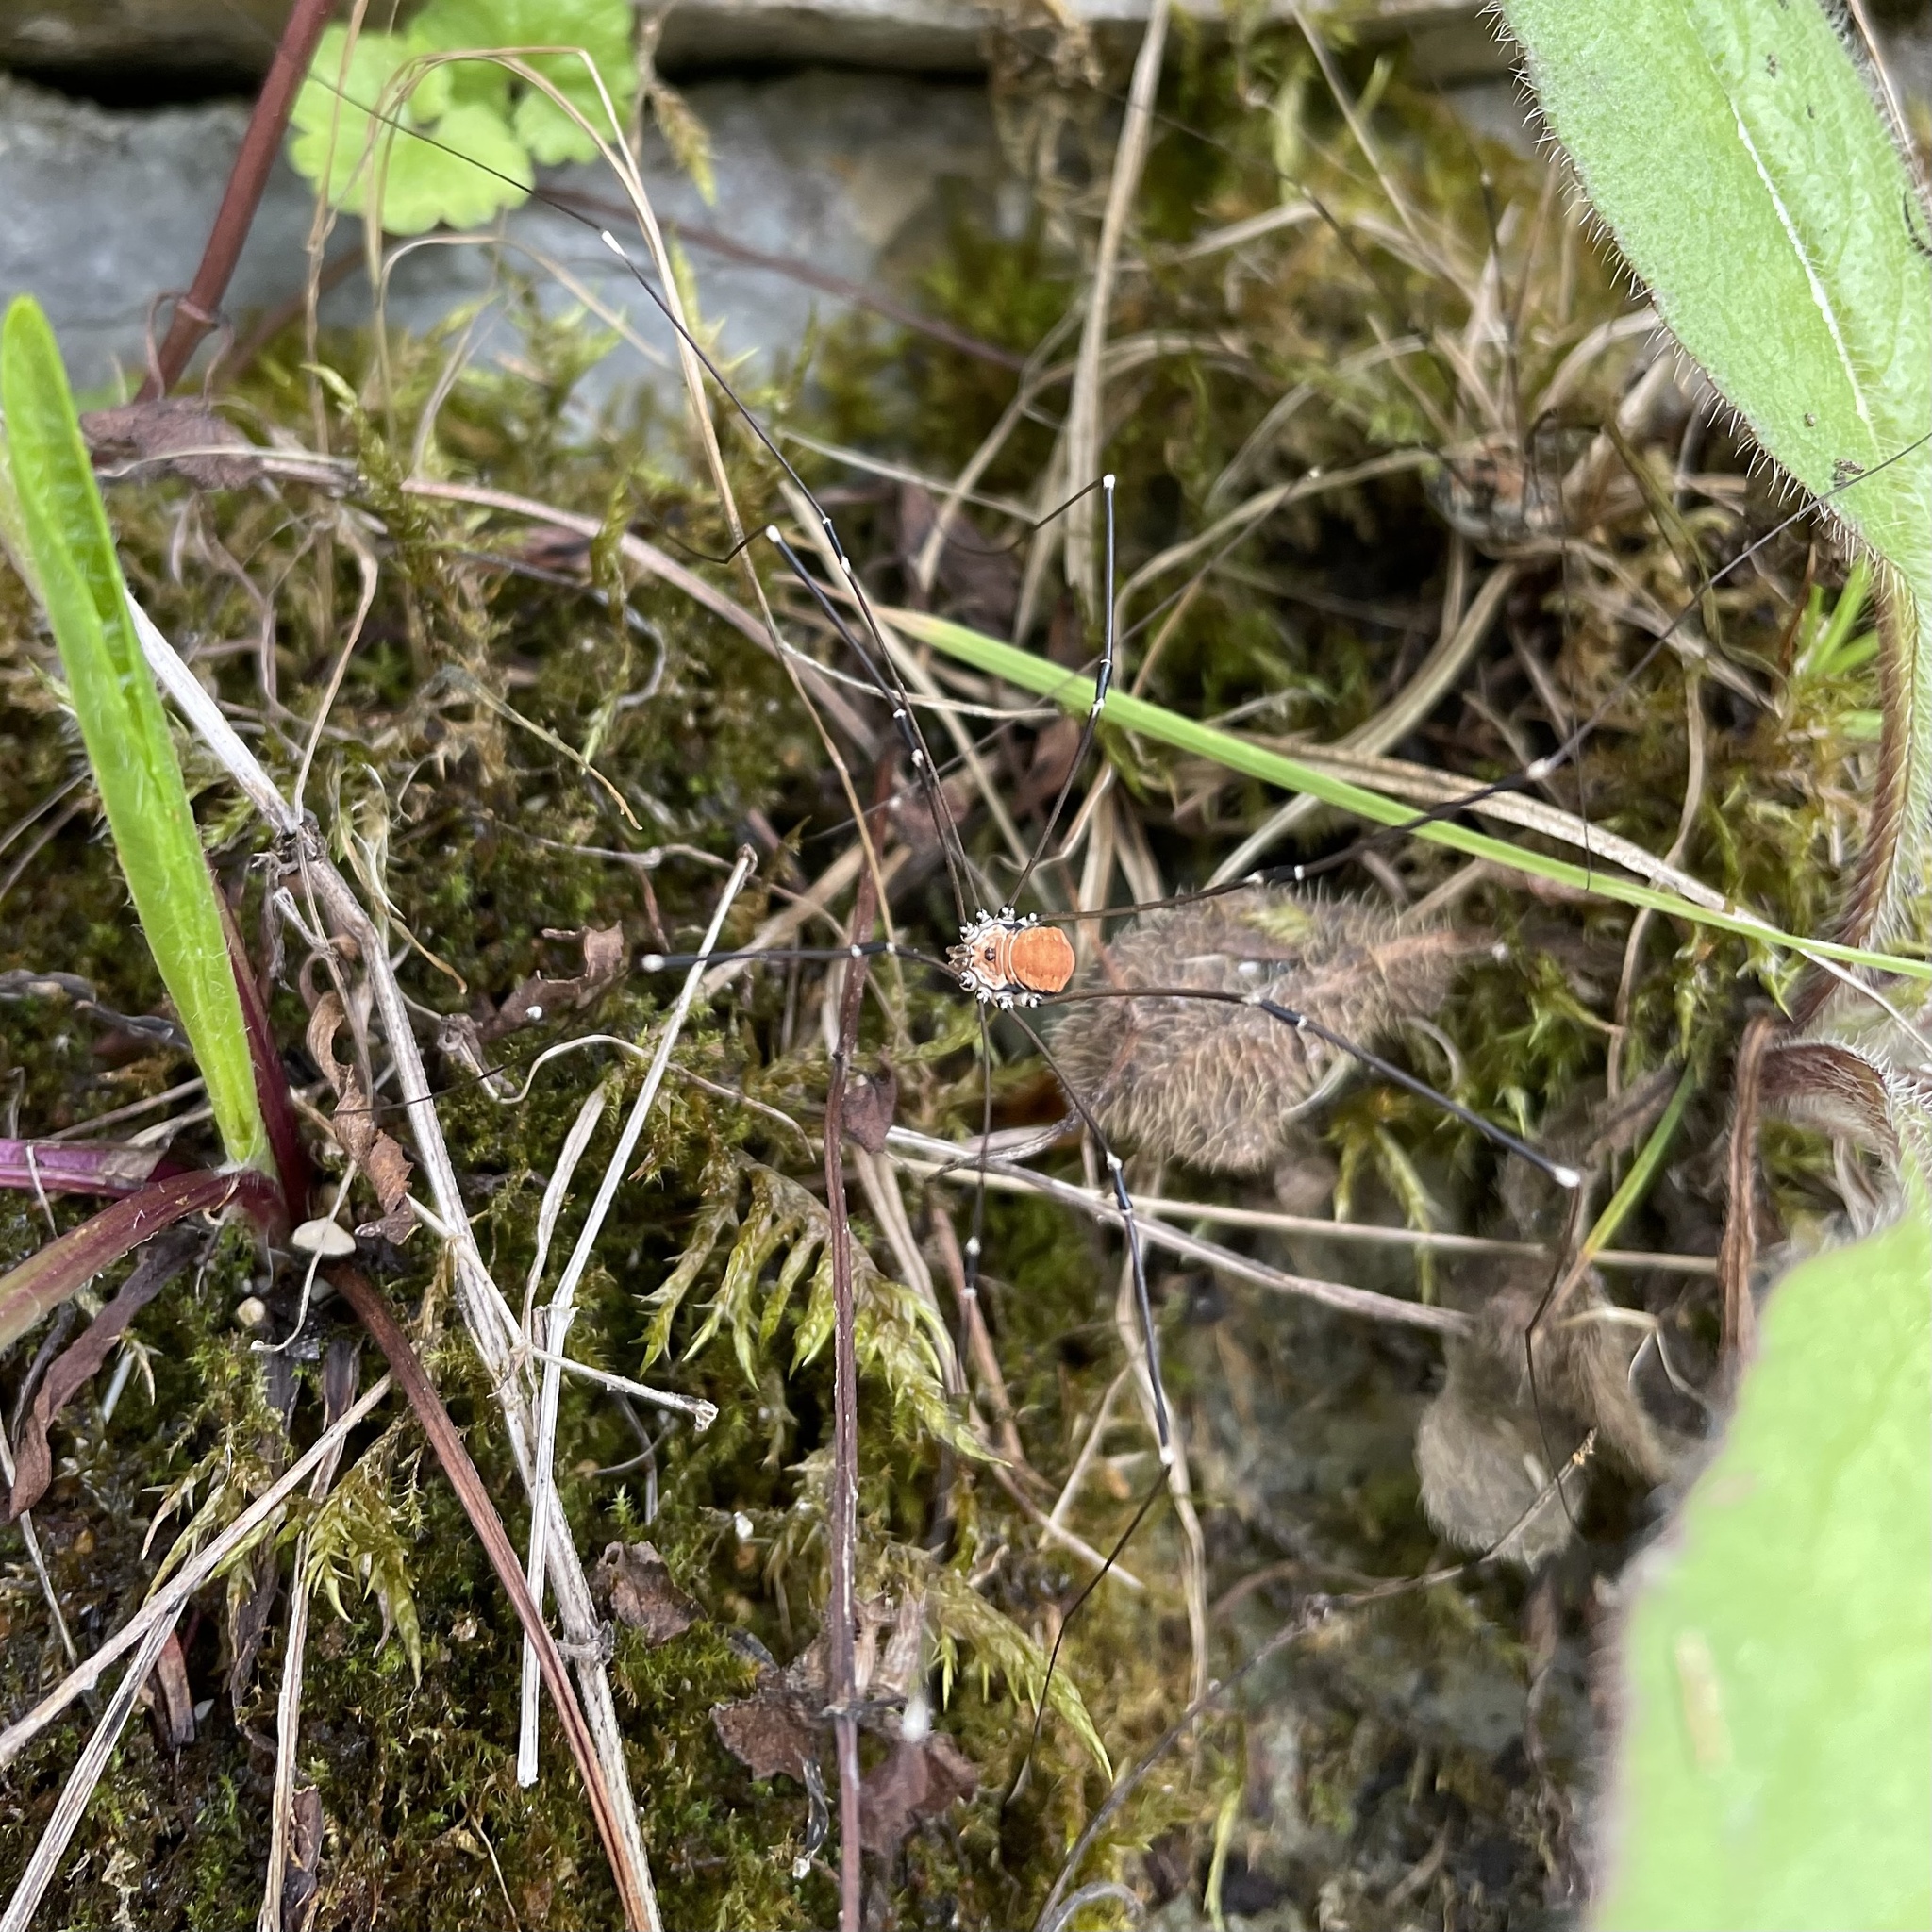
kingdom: Animalia
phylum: Arthropoda
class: Arachnida
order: Opiliones
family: Sclerosomatidae
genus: Leiobunum
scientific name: Leiobunum limbatum
